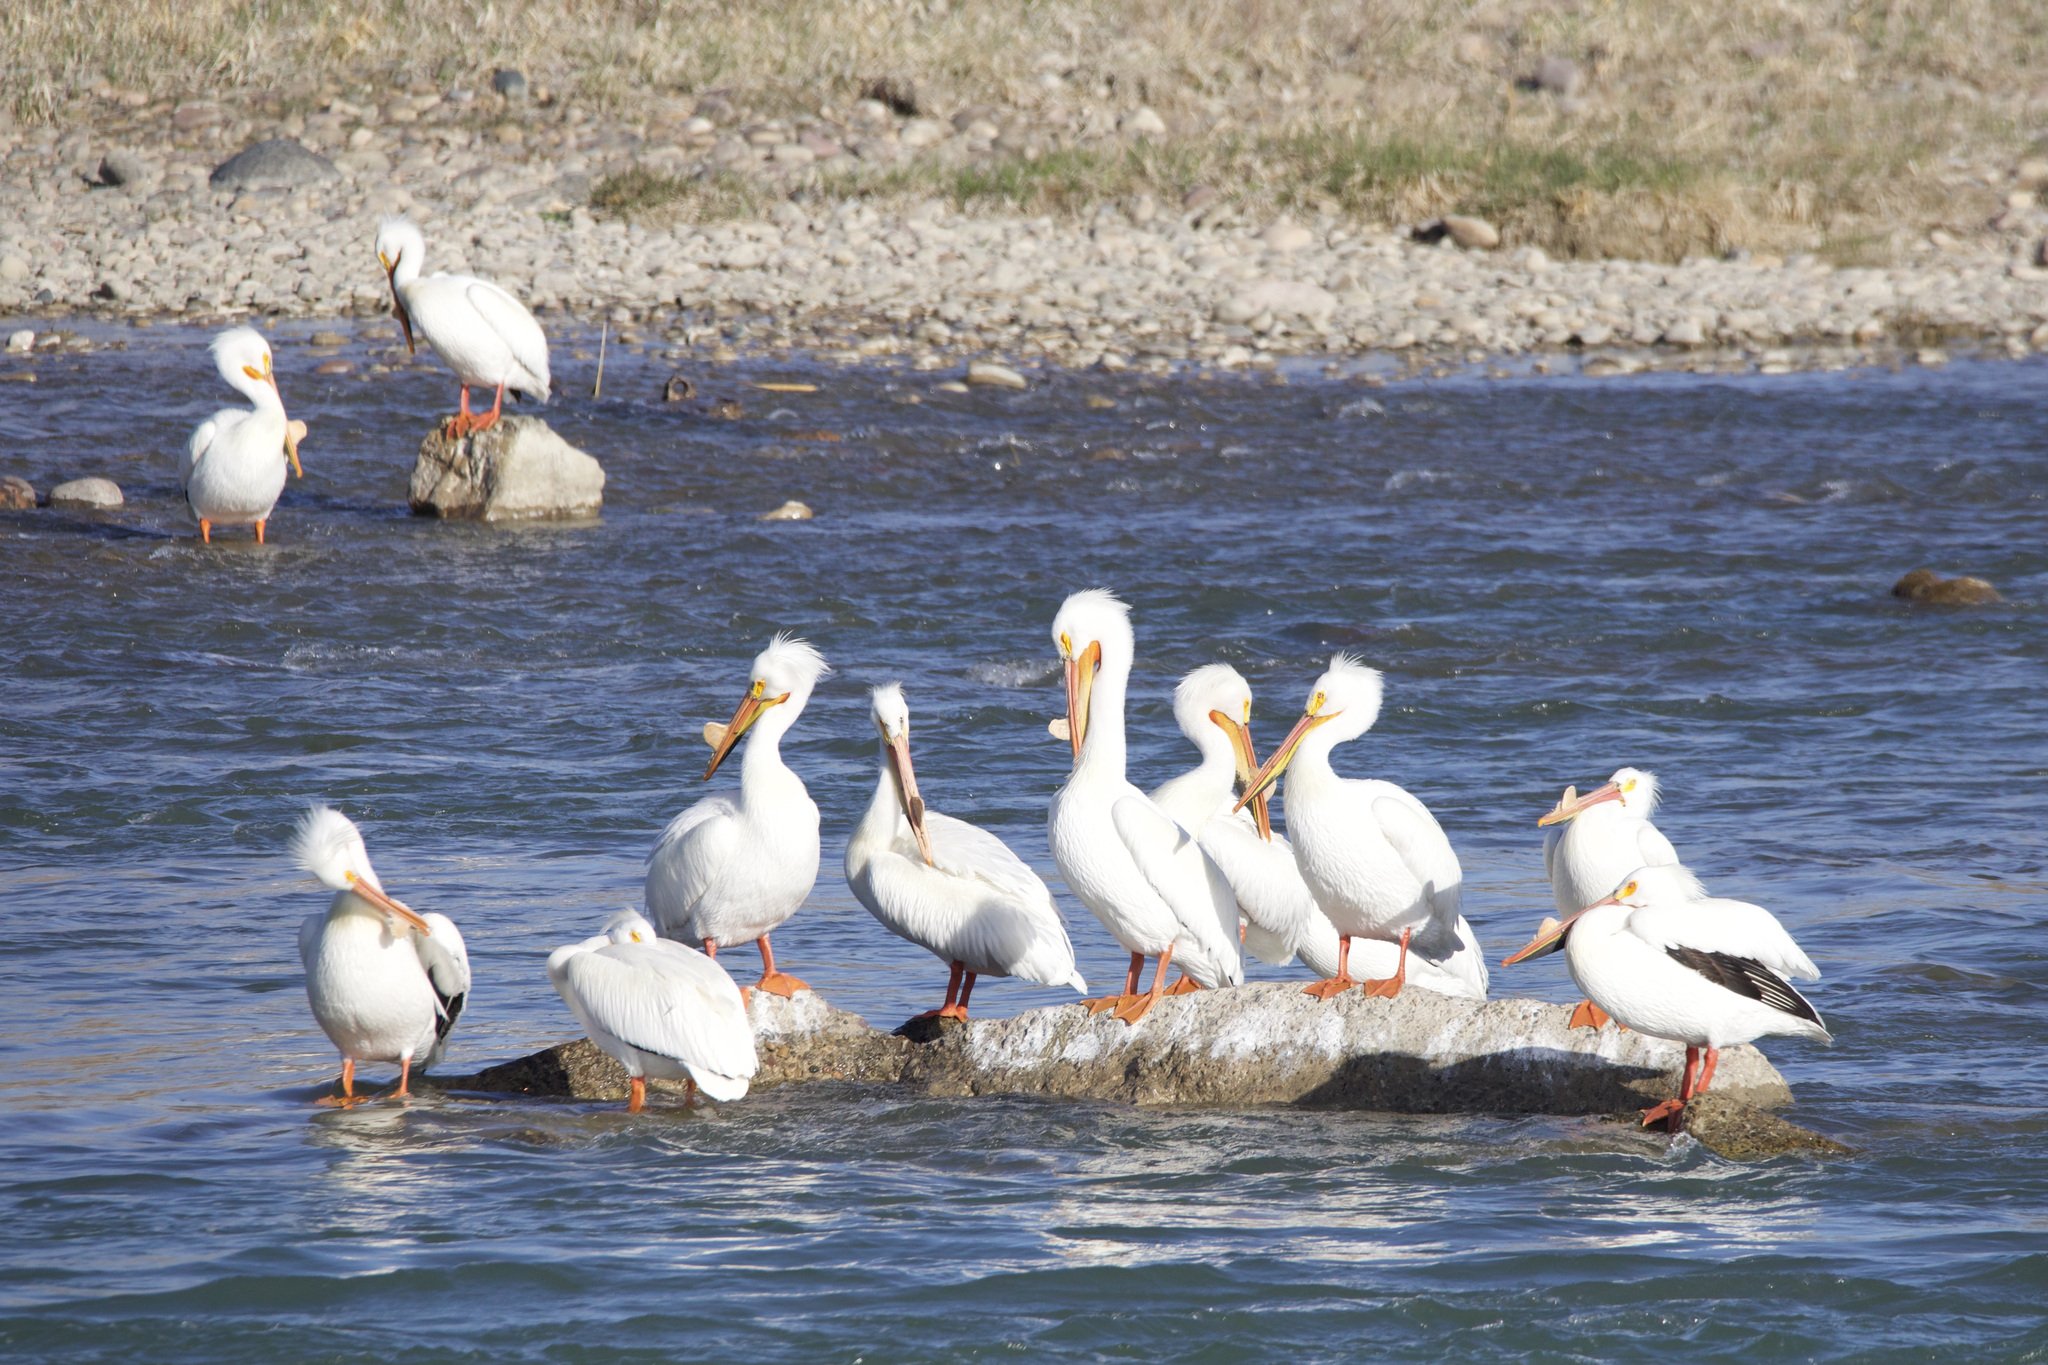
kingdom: Animalia
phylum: Chordata
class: Aves
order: Pelecaniformes
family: Pelecanidae
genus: Pelecanus
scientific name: Pelecanus erythrorhynchos
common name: American white pelican
